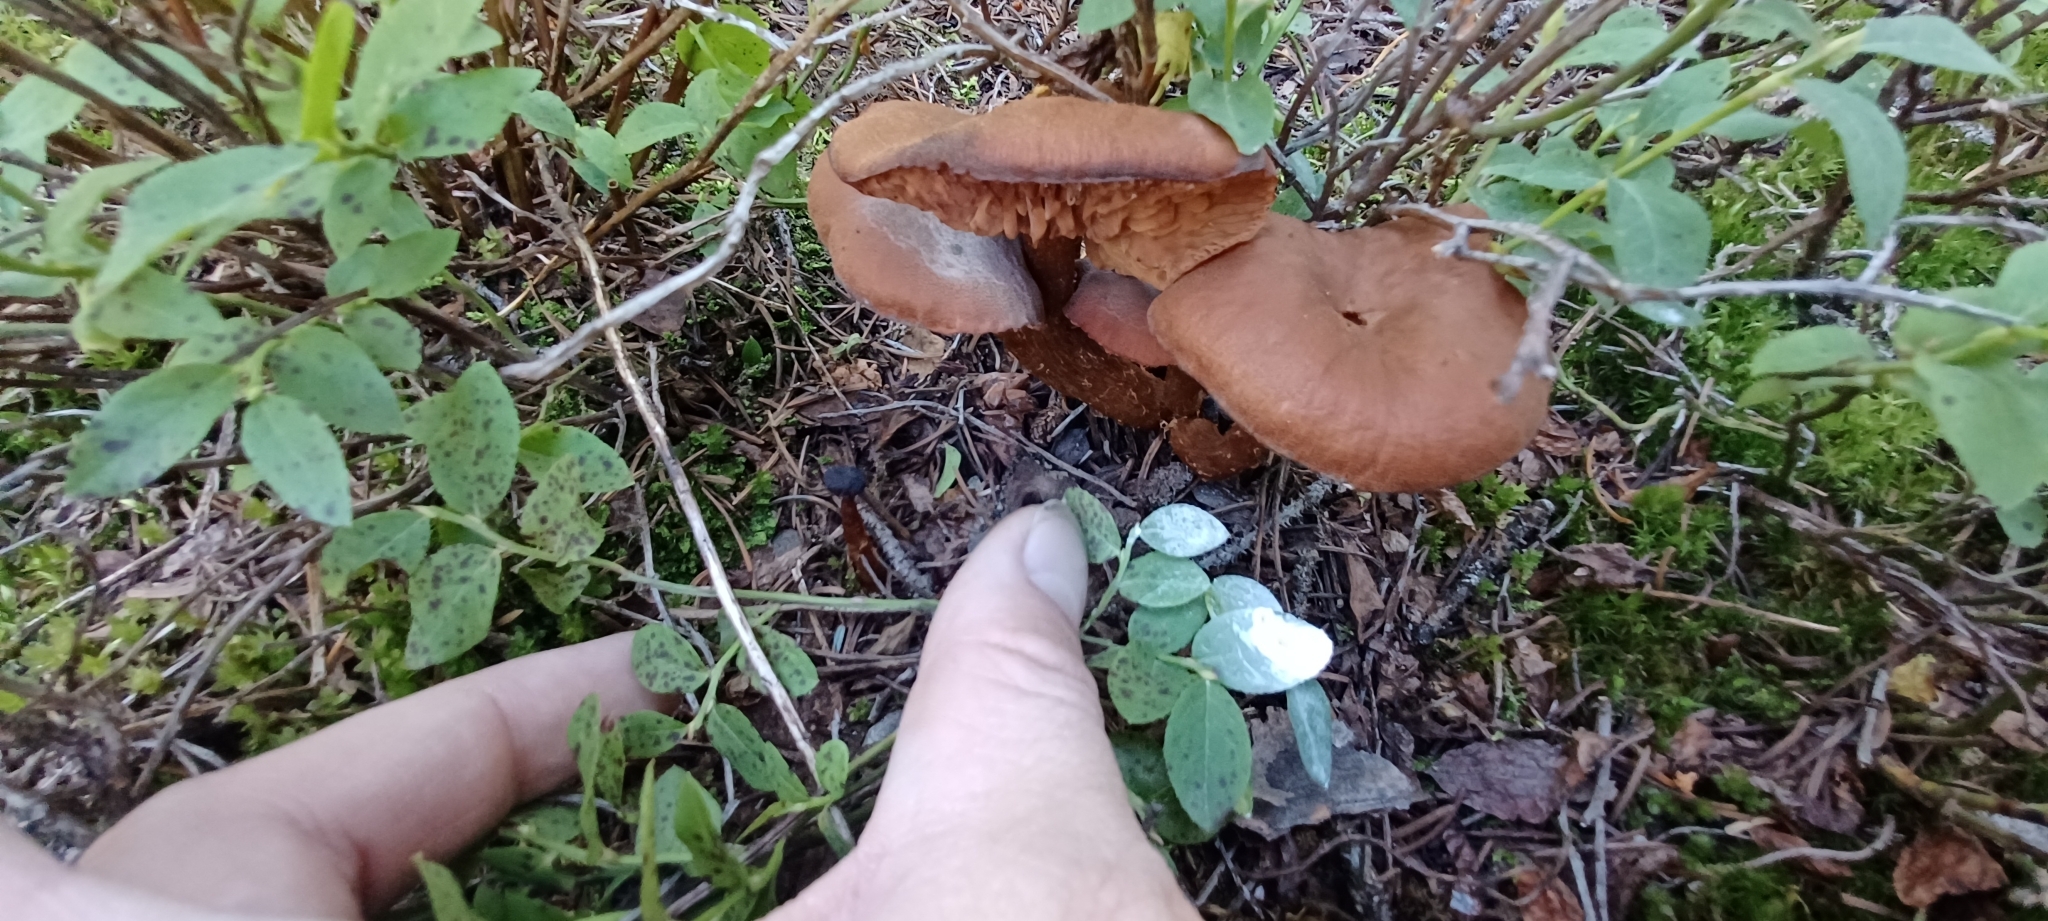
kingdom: Fungi
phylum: Basidiomycota
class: Agaricomycetes
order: Agaricales
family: Hydnangiaceae
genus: Laccaria
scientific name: Laccaria laccata
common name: Deceiver
